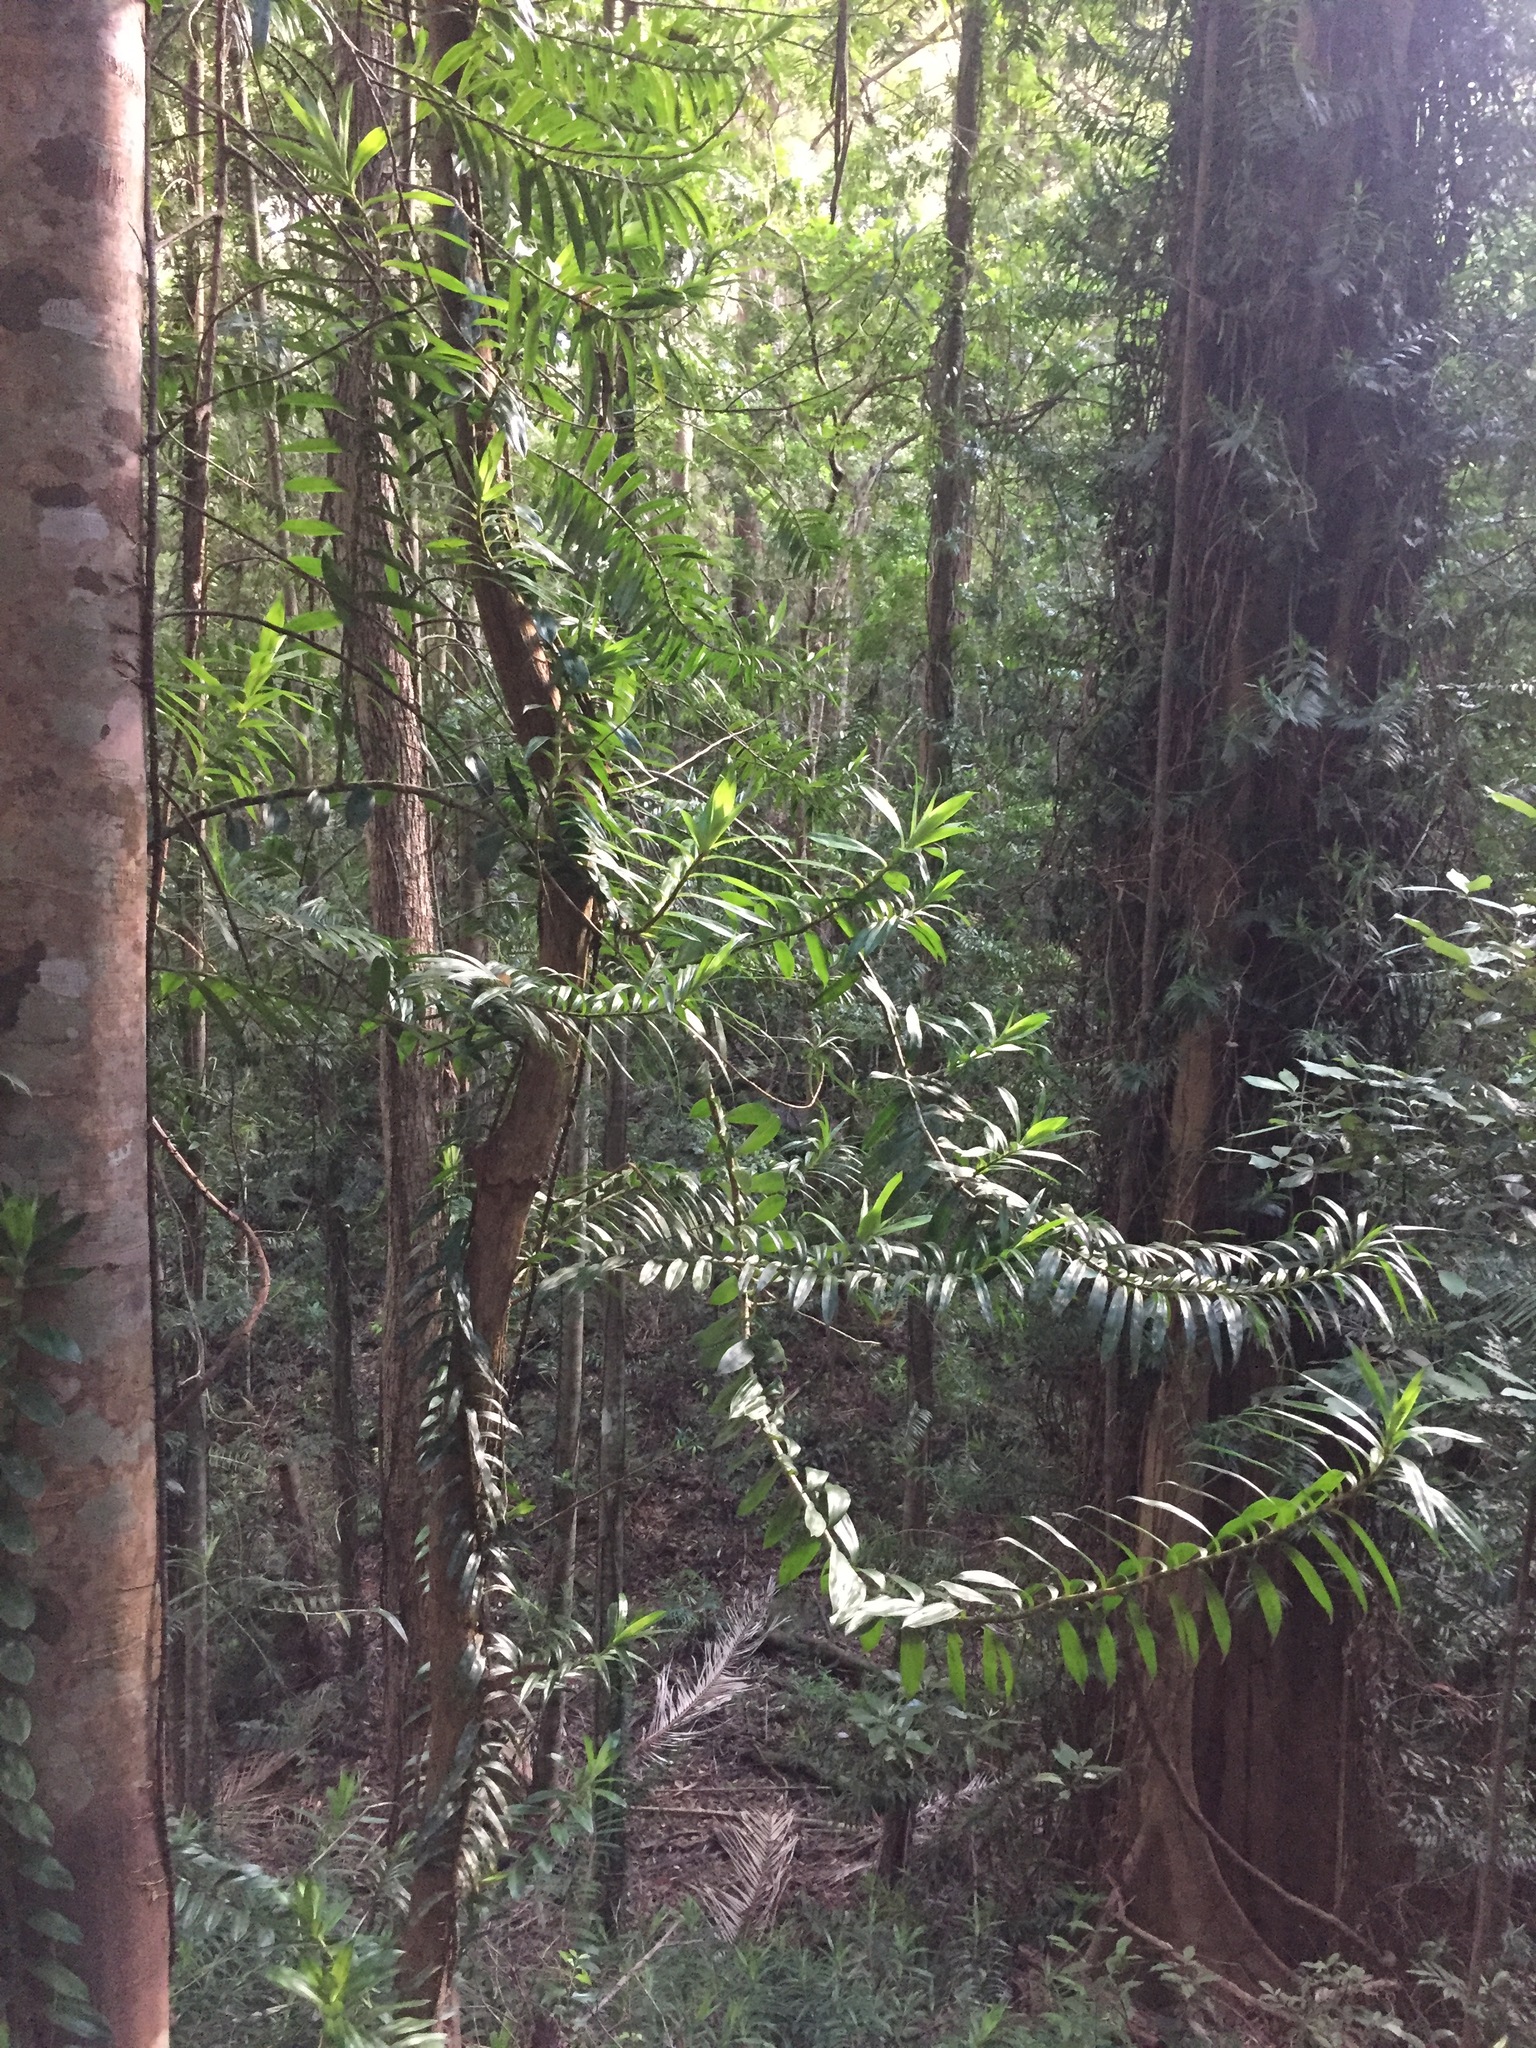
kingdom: Plantae
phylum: Tracheophyta
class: Liliopsida
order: Pandanales
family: Pandanaceae
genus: Freycinetia
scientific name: Freycinetia scandens
